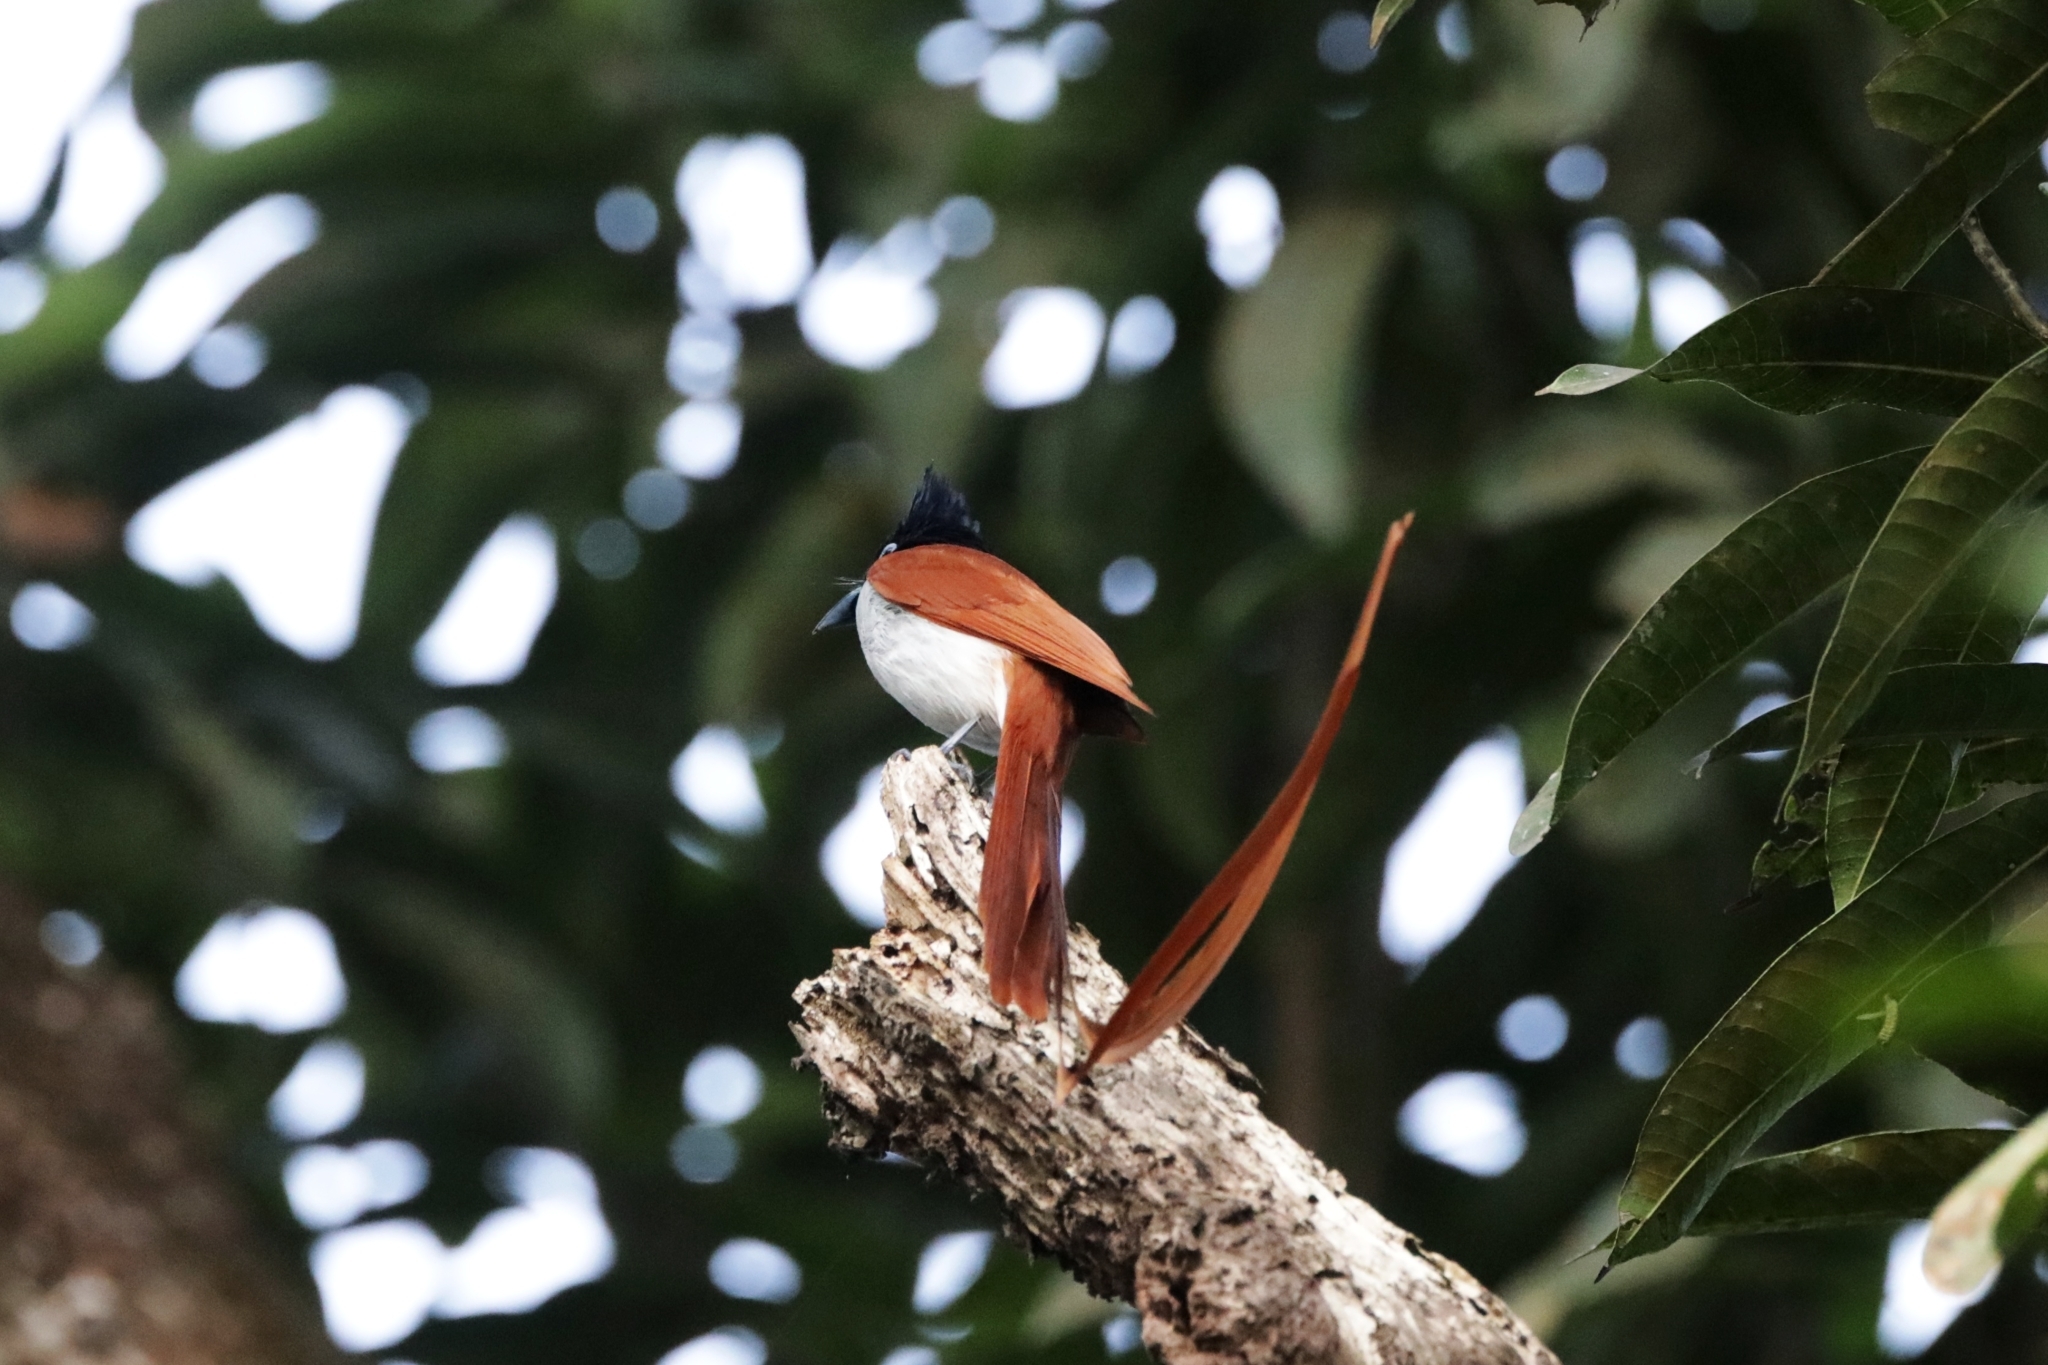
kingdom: Animalia
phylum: Chordata
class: Aves
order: Passeriformes
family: Monarchidae
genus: Terpsiphone
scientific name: Terpsiphone paradisi
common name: Indian paradise flycatcher
